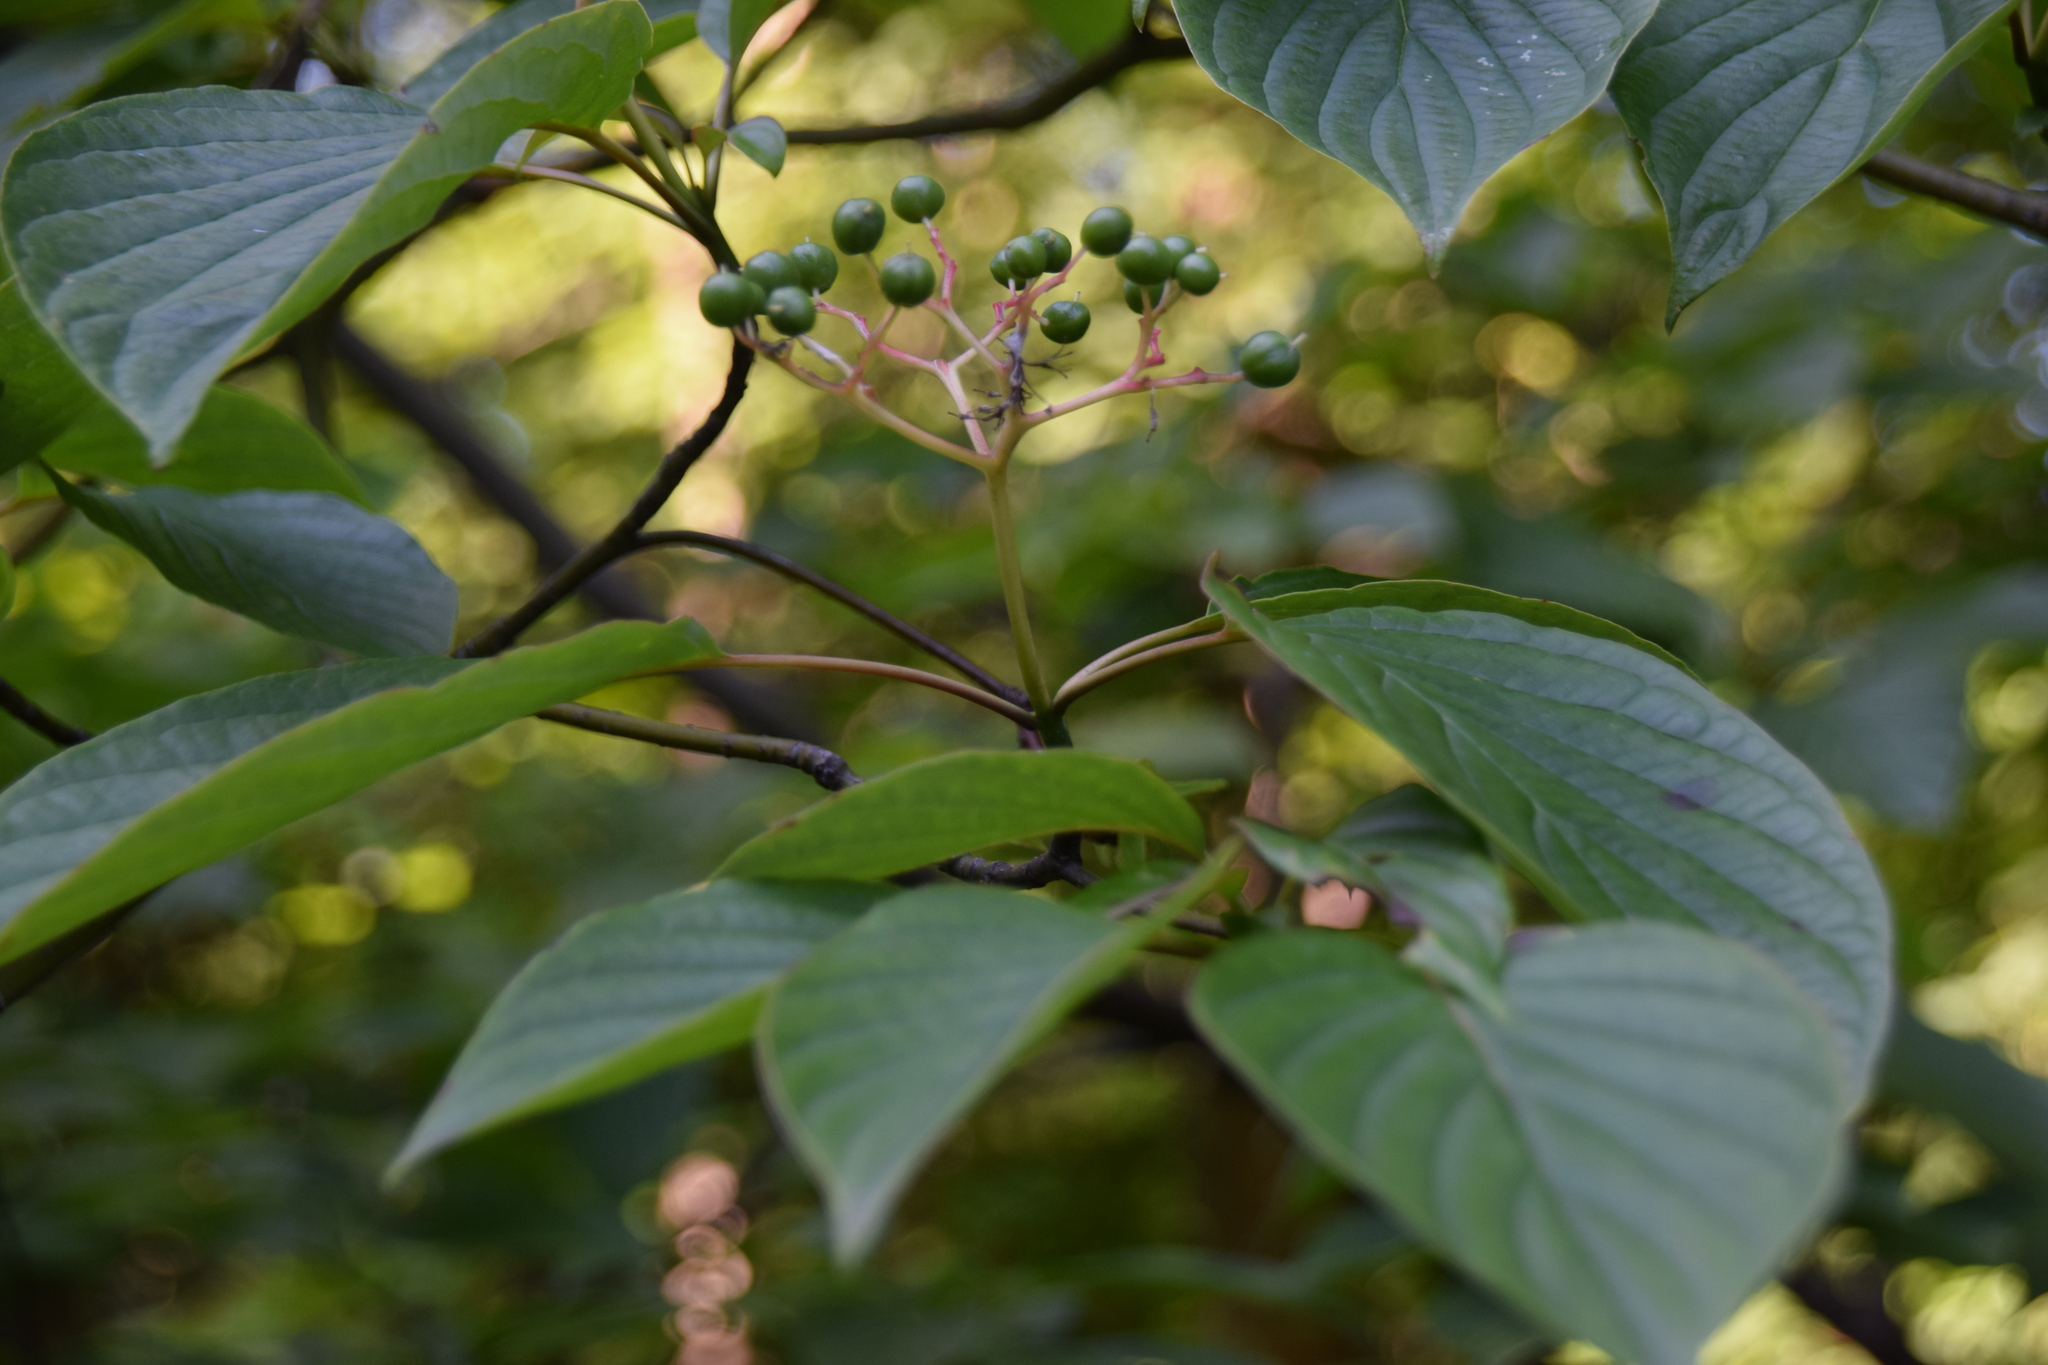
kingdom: Plantae
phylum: Tracheophyta
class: Magnoliopsida
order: Cornales
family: Cornaceae
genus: Cornus
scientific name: Cornus alternifolia
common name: Pagoda dogwood
